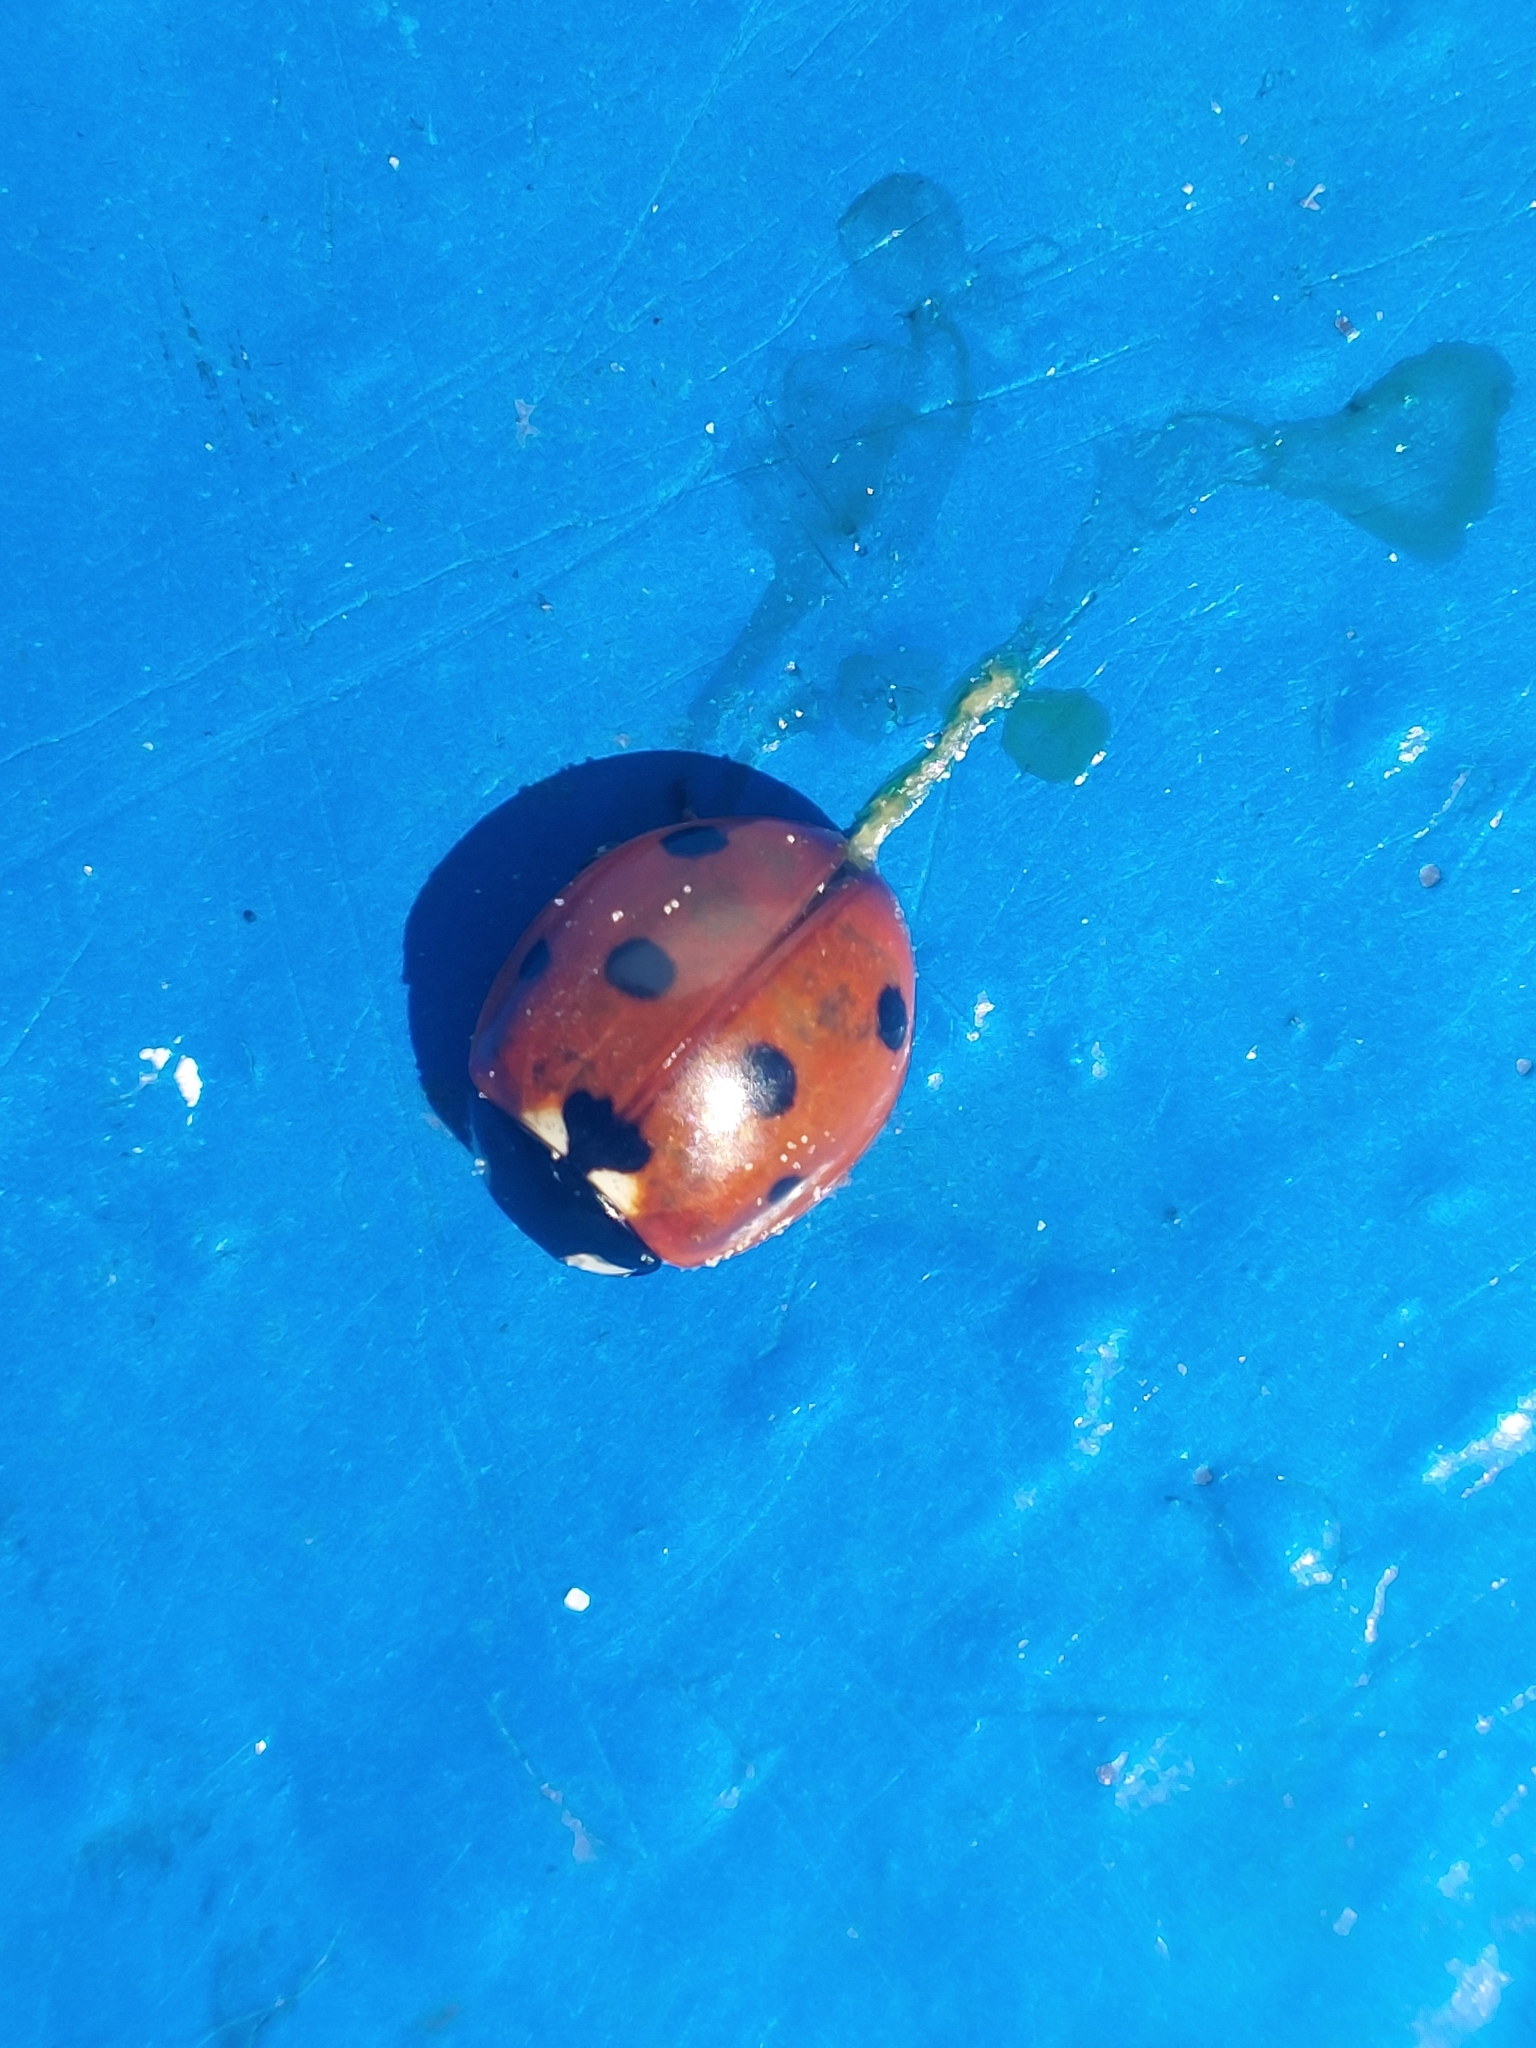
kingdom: Animalia
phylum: Arthropoda
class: Insecta
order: Coleoptera
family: Coccinellidae
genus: Coccinella
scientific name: Coccinella septempunctata
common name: Sevenspotted lady beetle
